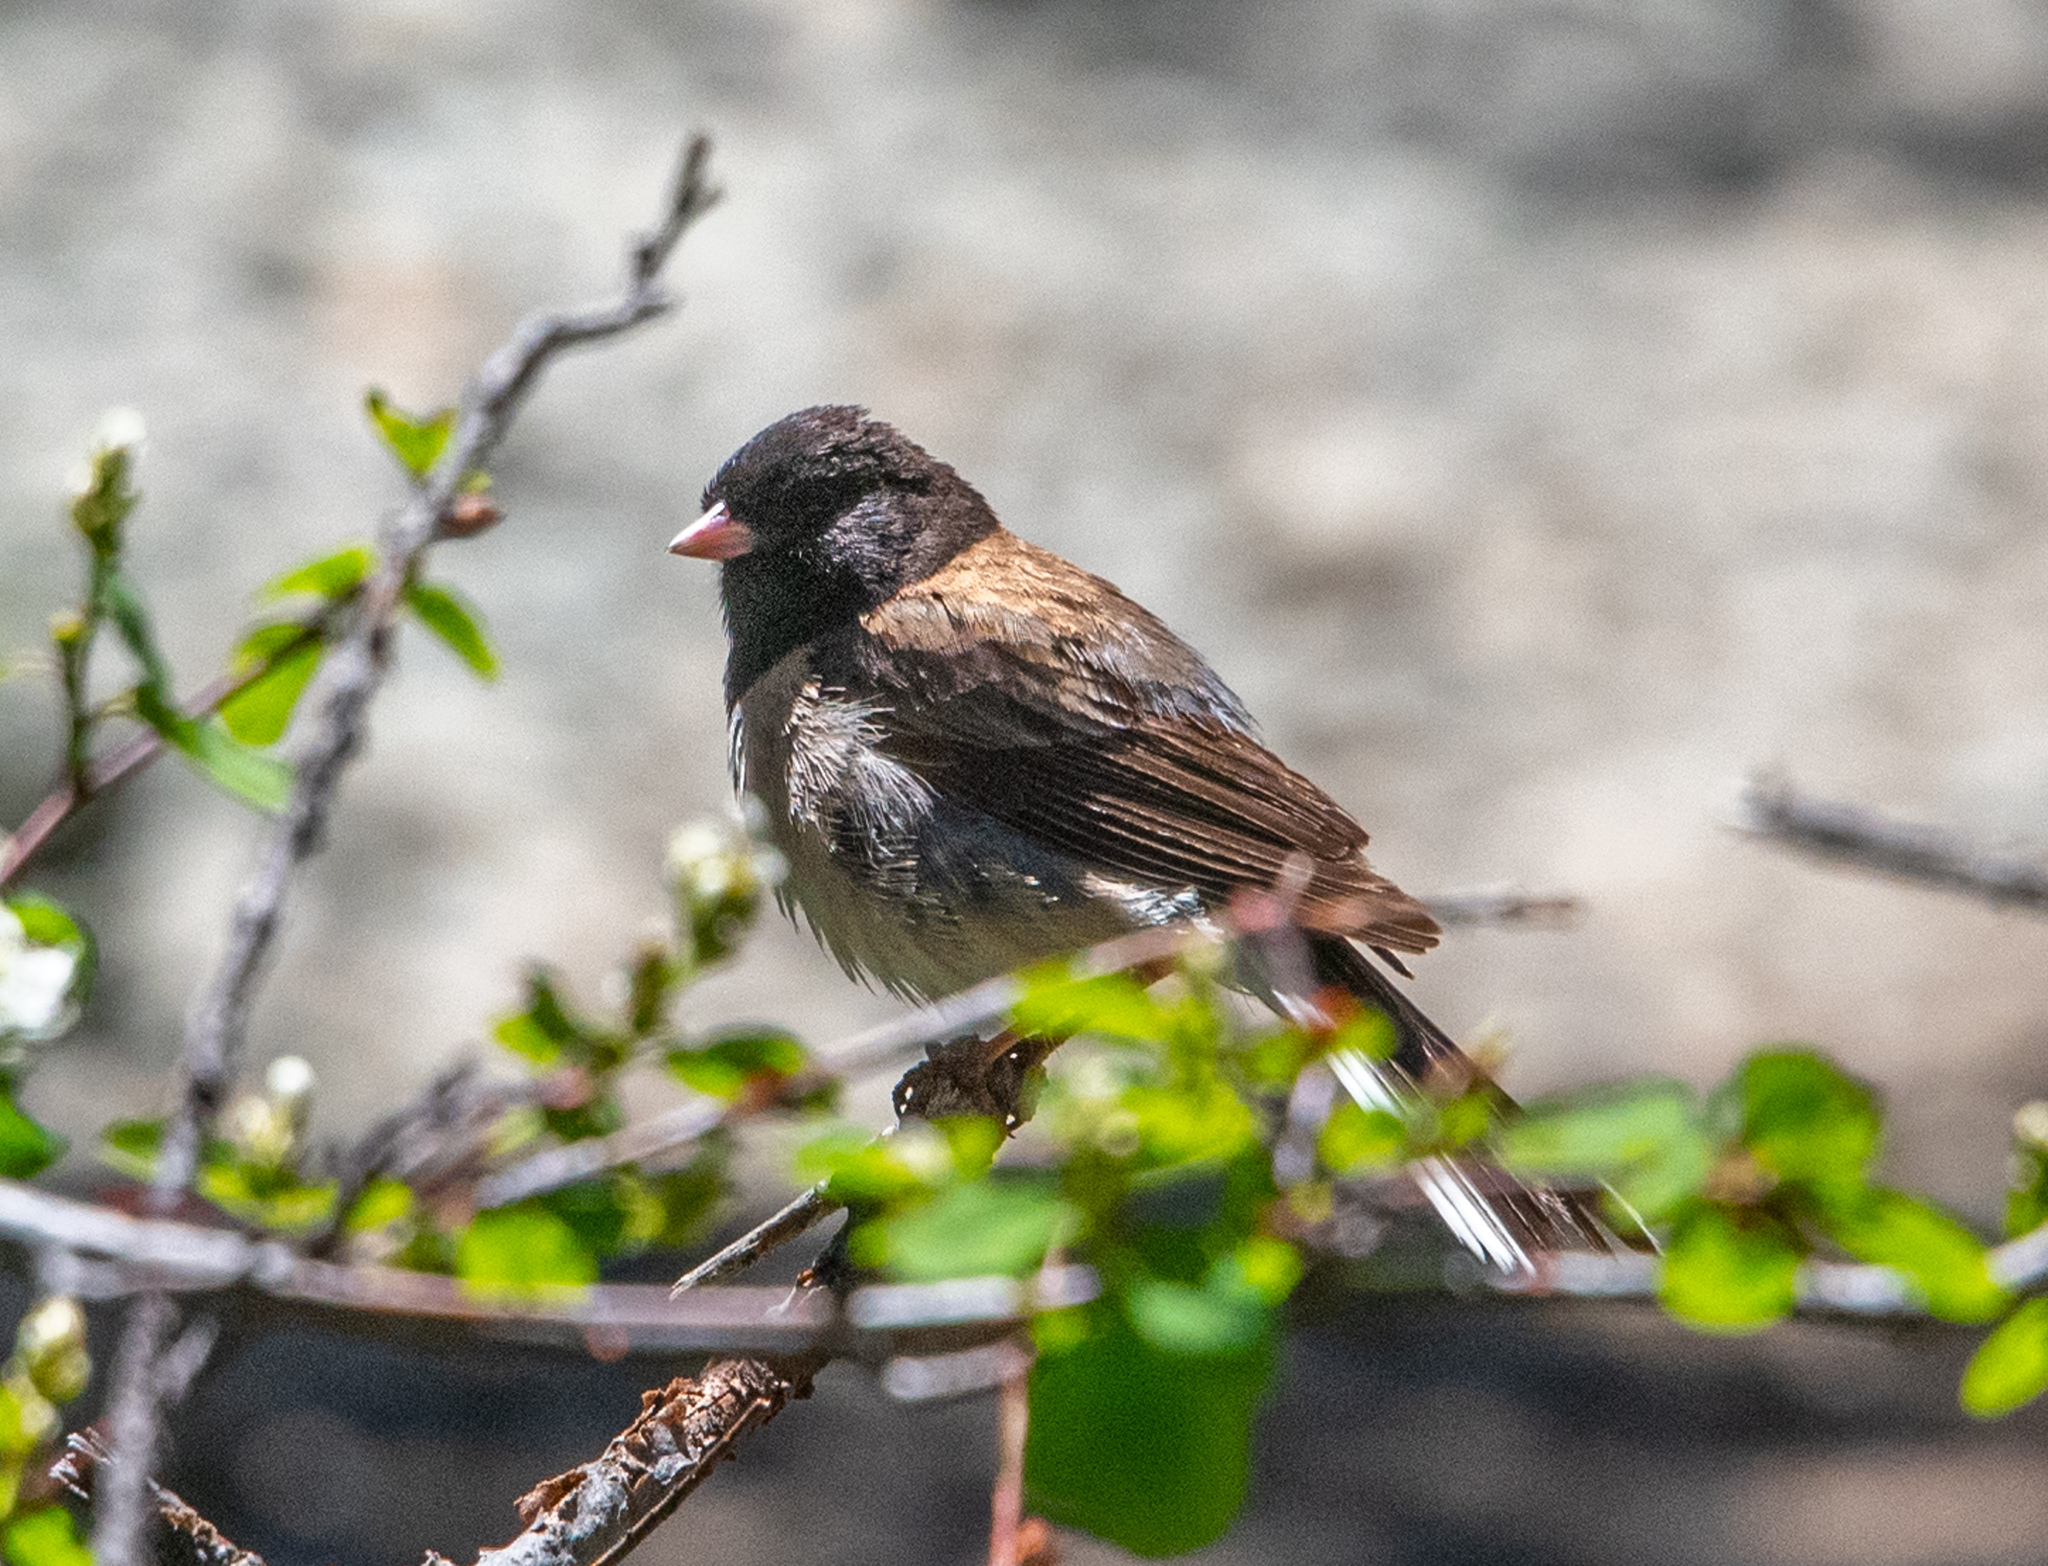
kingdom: Animalia
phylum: Chordata
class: Aves
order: Passeriformes
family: Passerellidae
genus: Junco
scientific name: Junco hyemalis
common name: Dark-eyed junco
